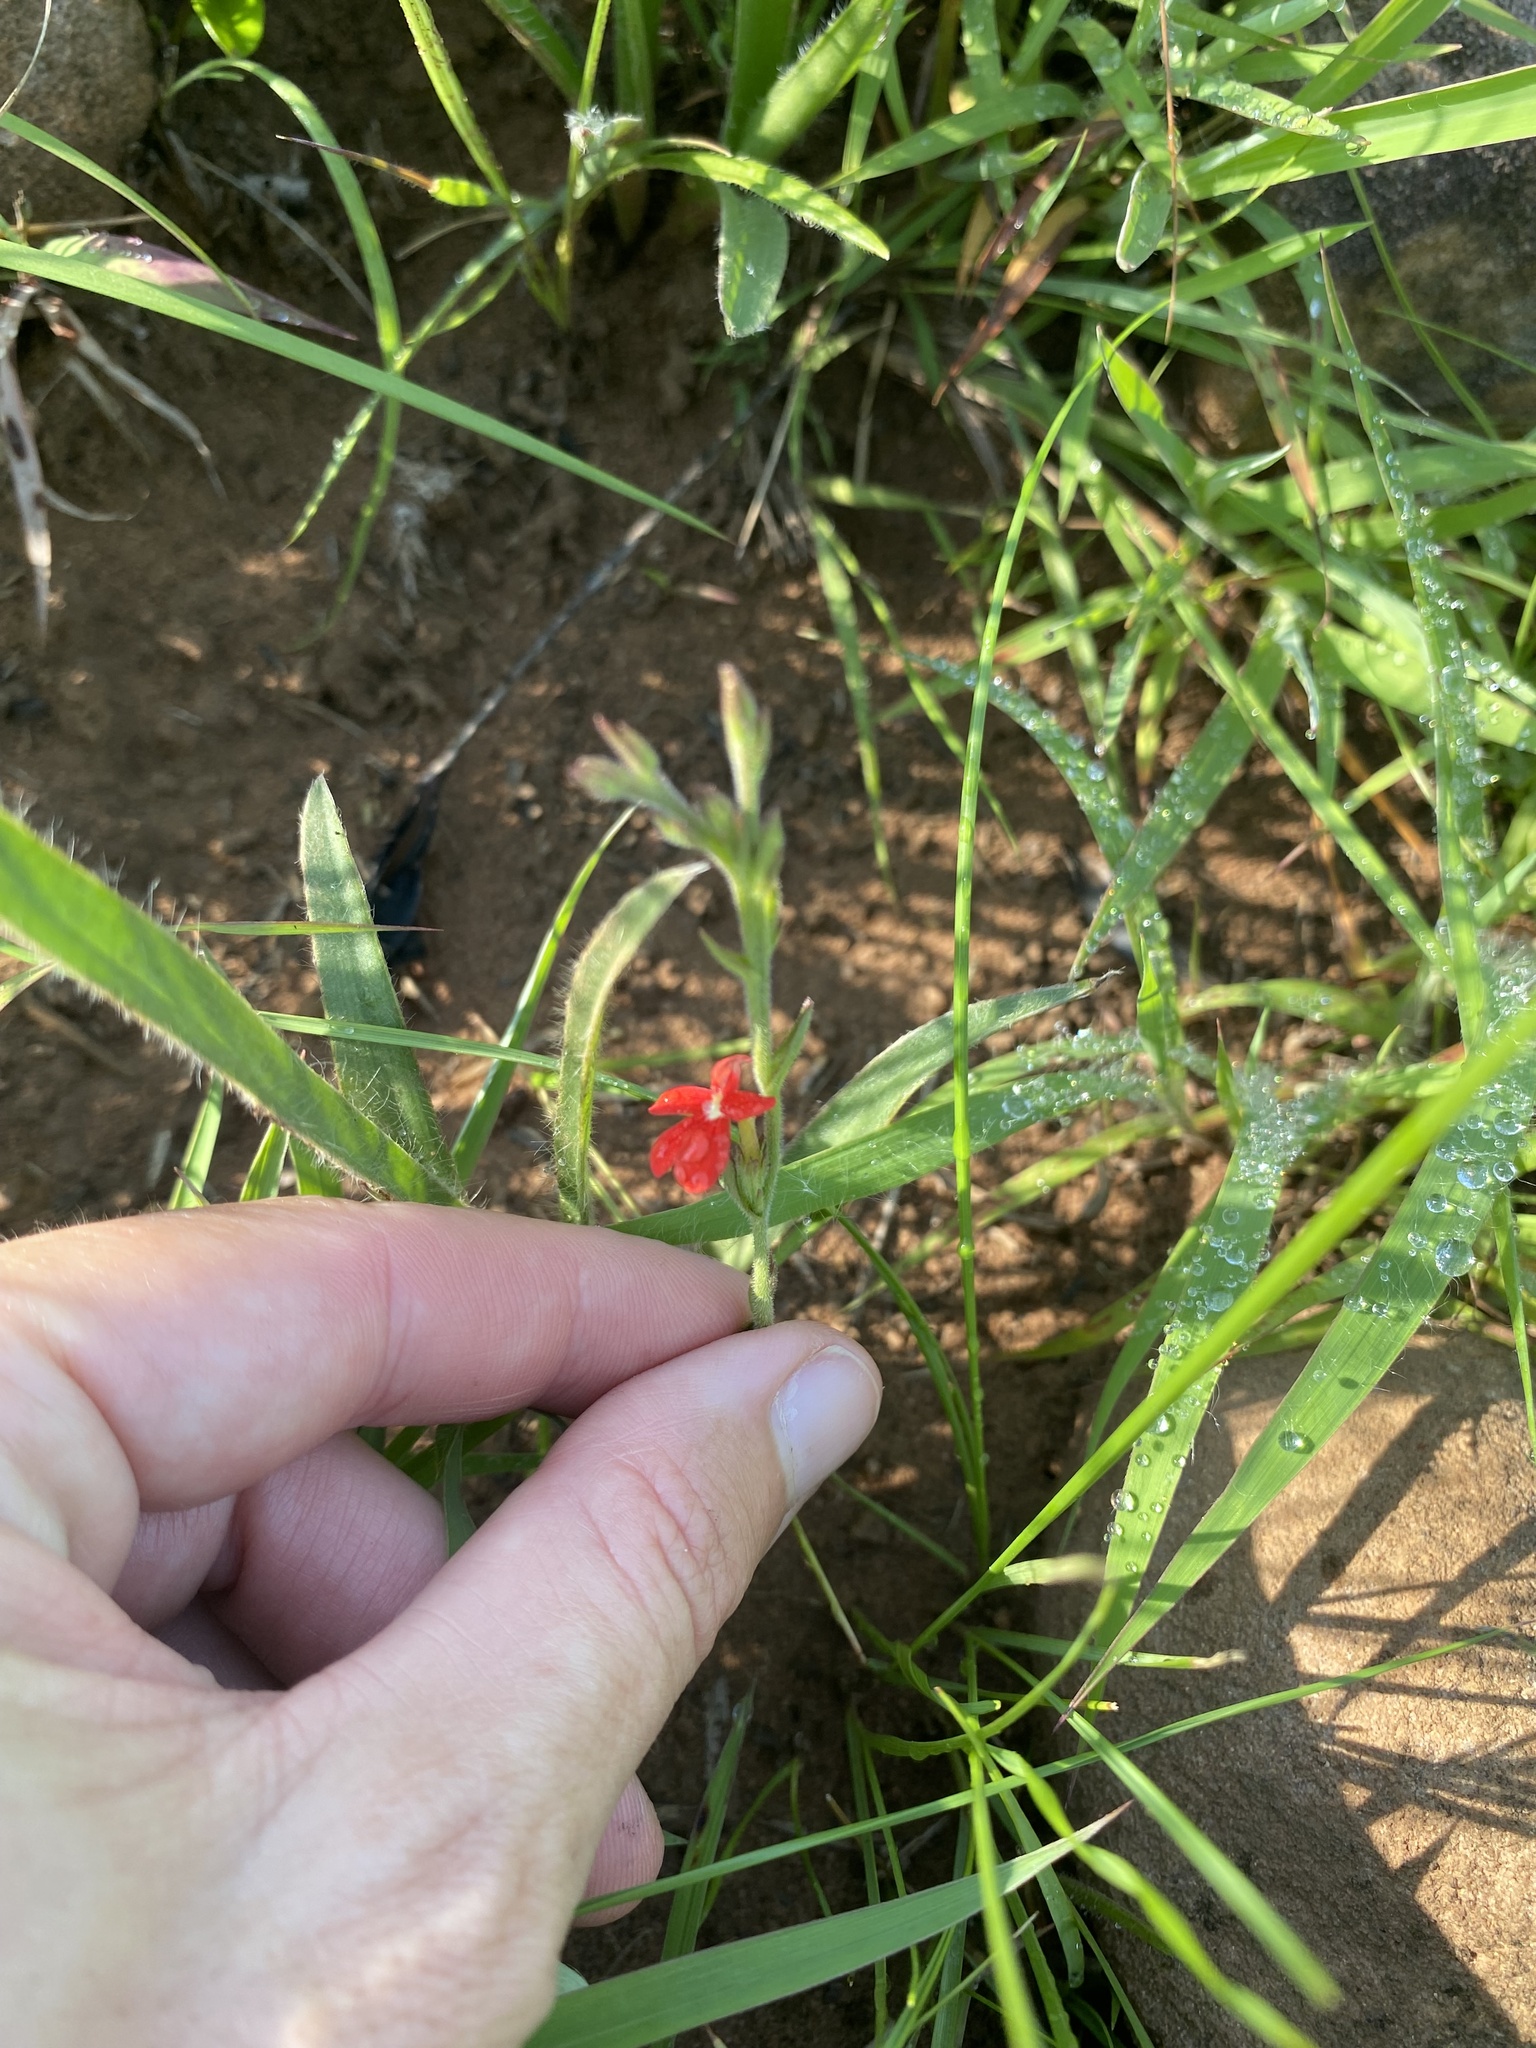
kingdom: Plantae
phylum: Tracheophyta
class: Magnoliopsida
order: Lamiales
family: Orobanchaceae
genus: Striga
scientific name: Striga elegans
